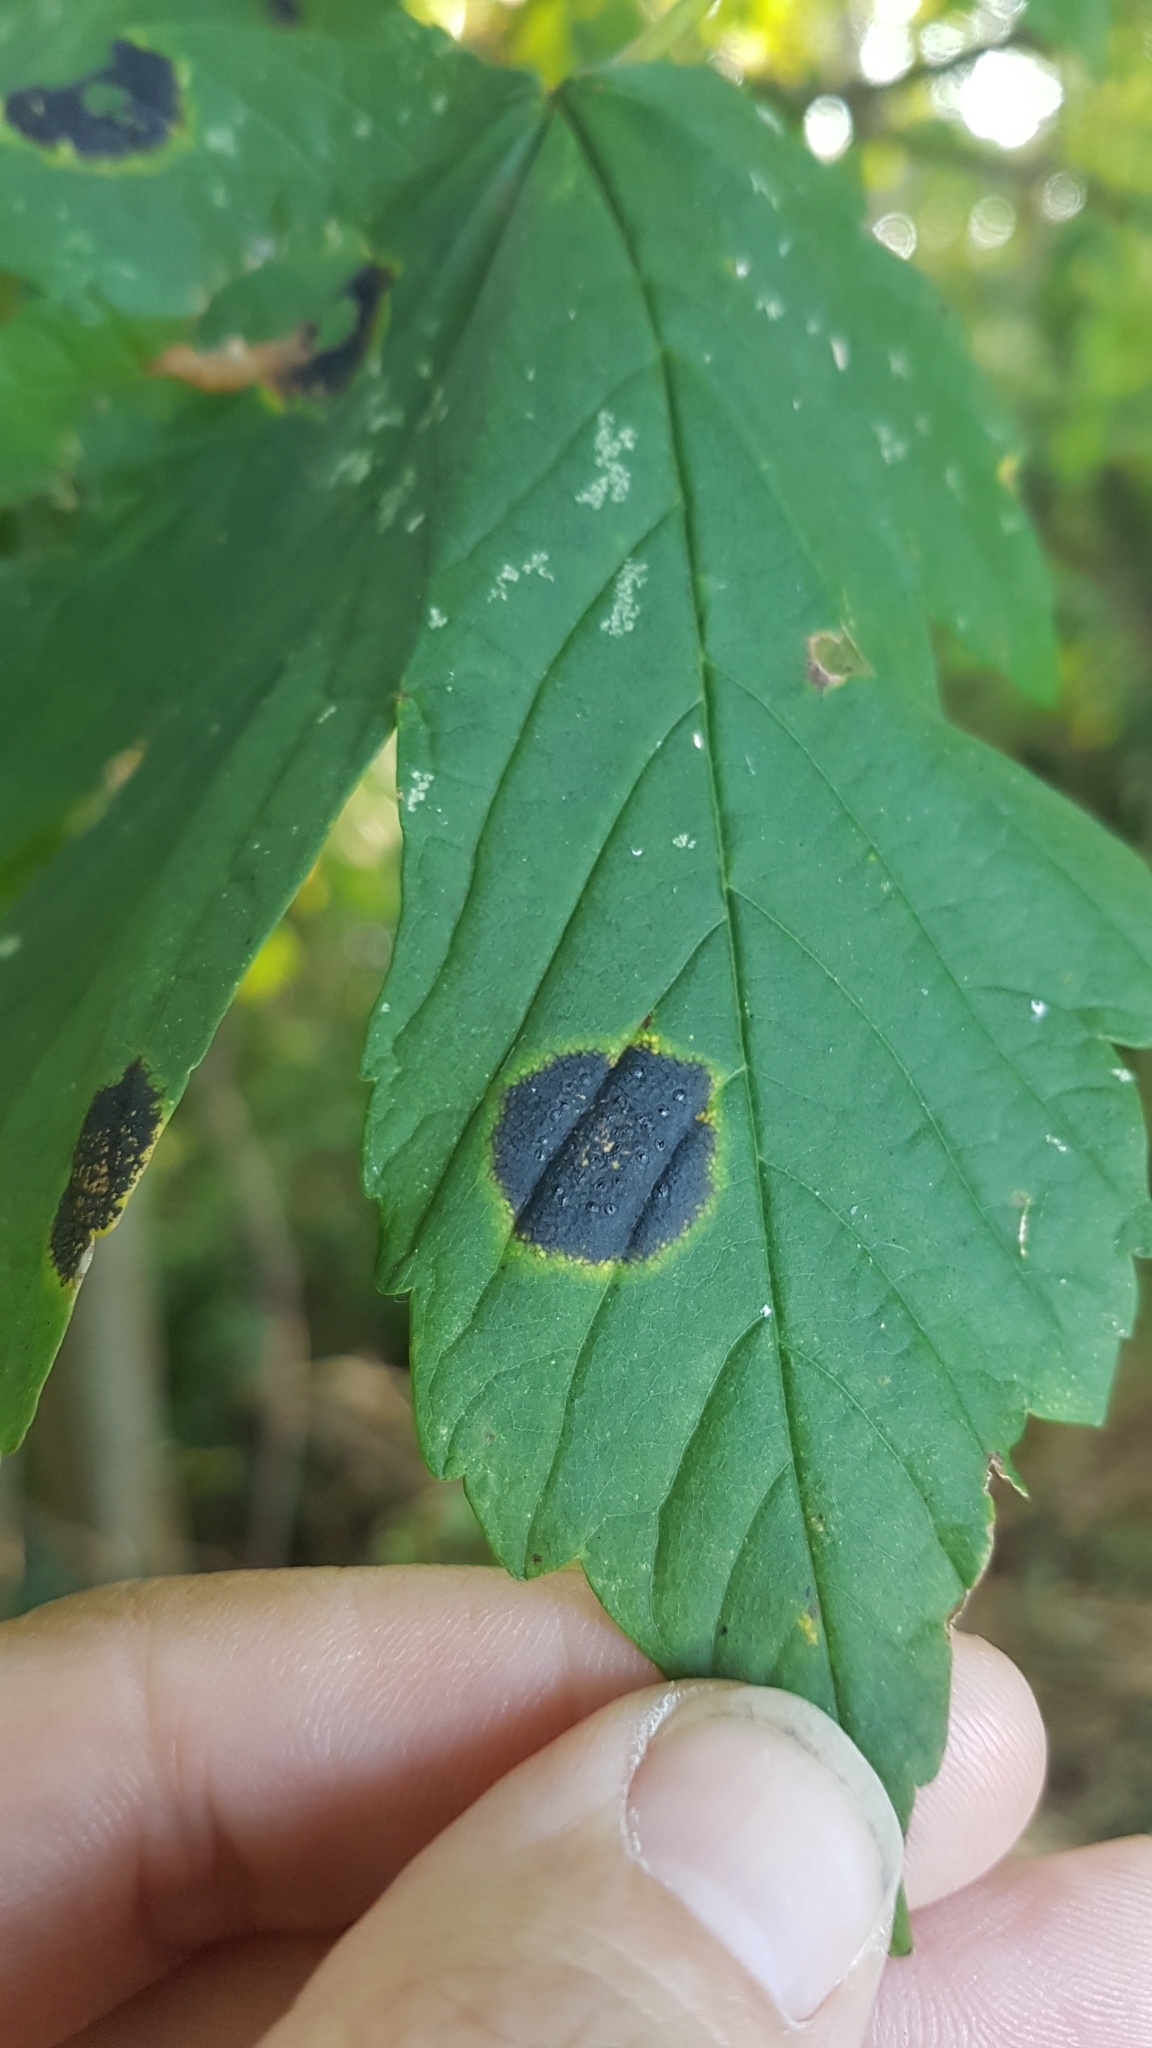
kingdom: Fungi
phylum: Ascomycota
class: Leotiomycetes
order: Rhytismatales
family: Rhytismataceae
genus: Rhytisma
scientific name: Rhytisma acerinum
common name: European tar spot
